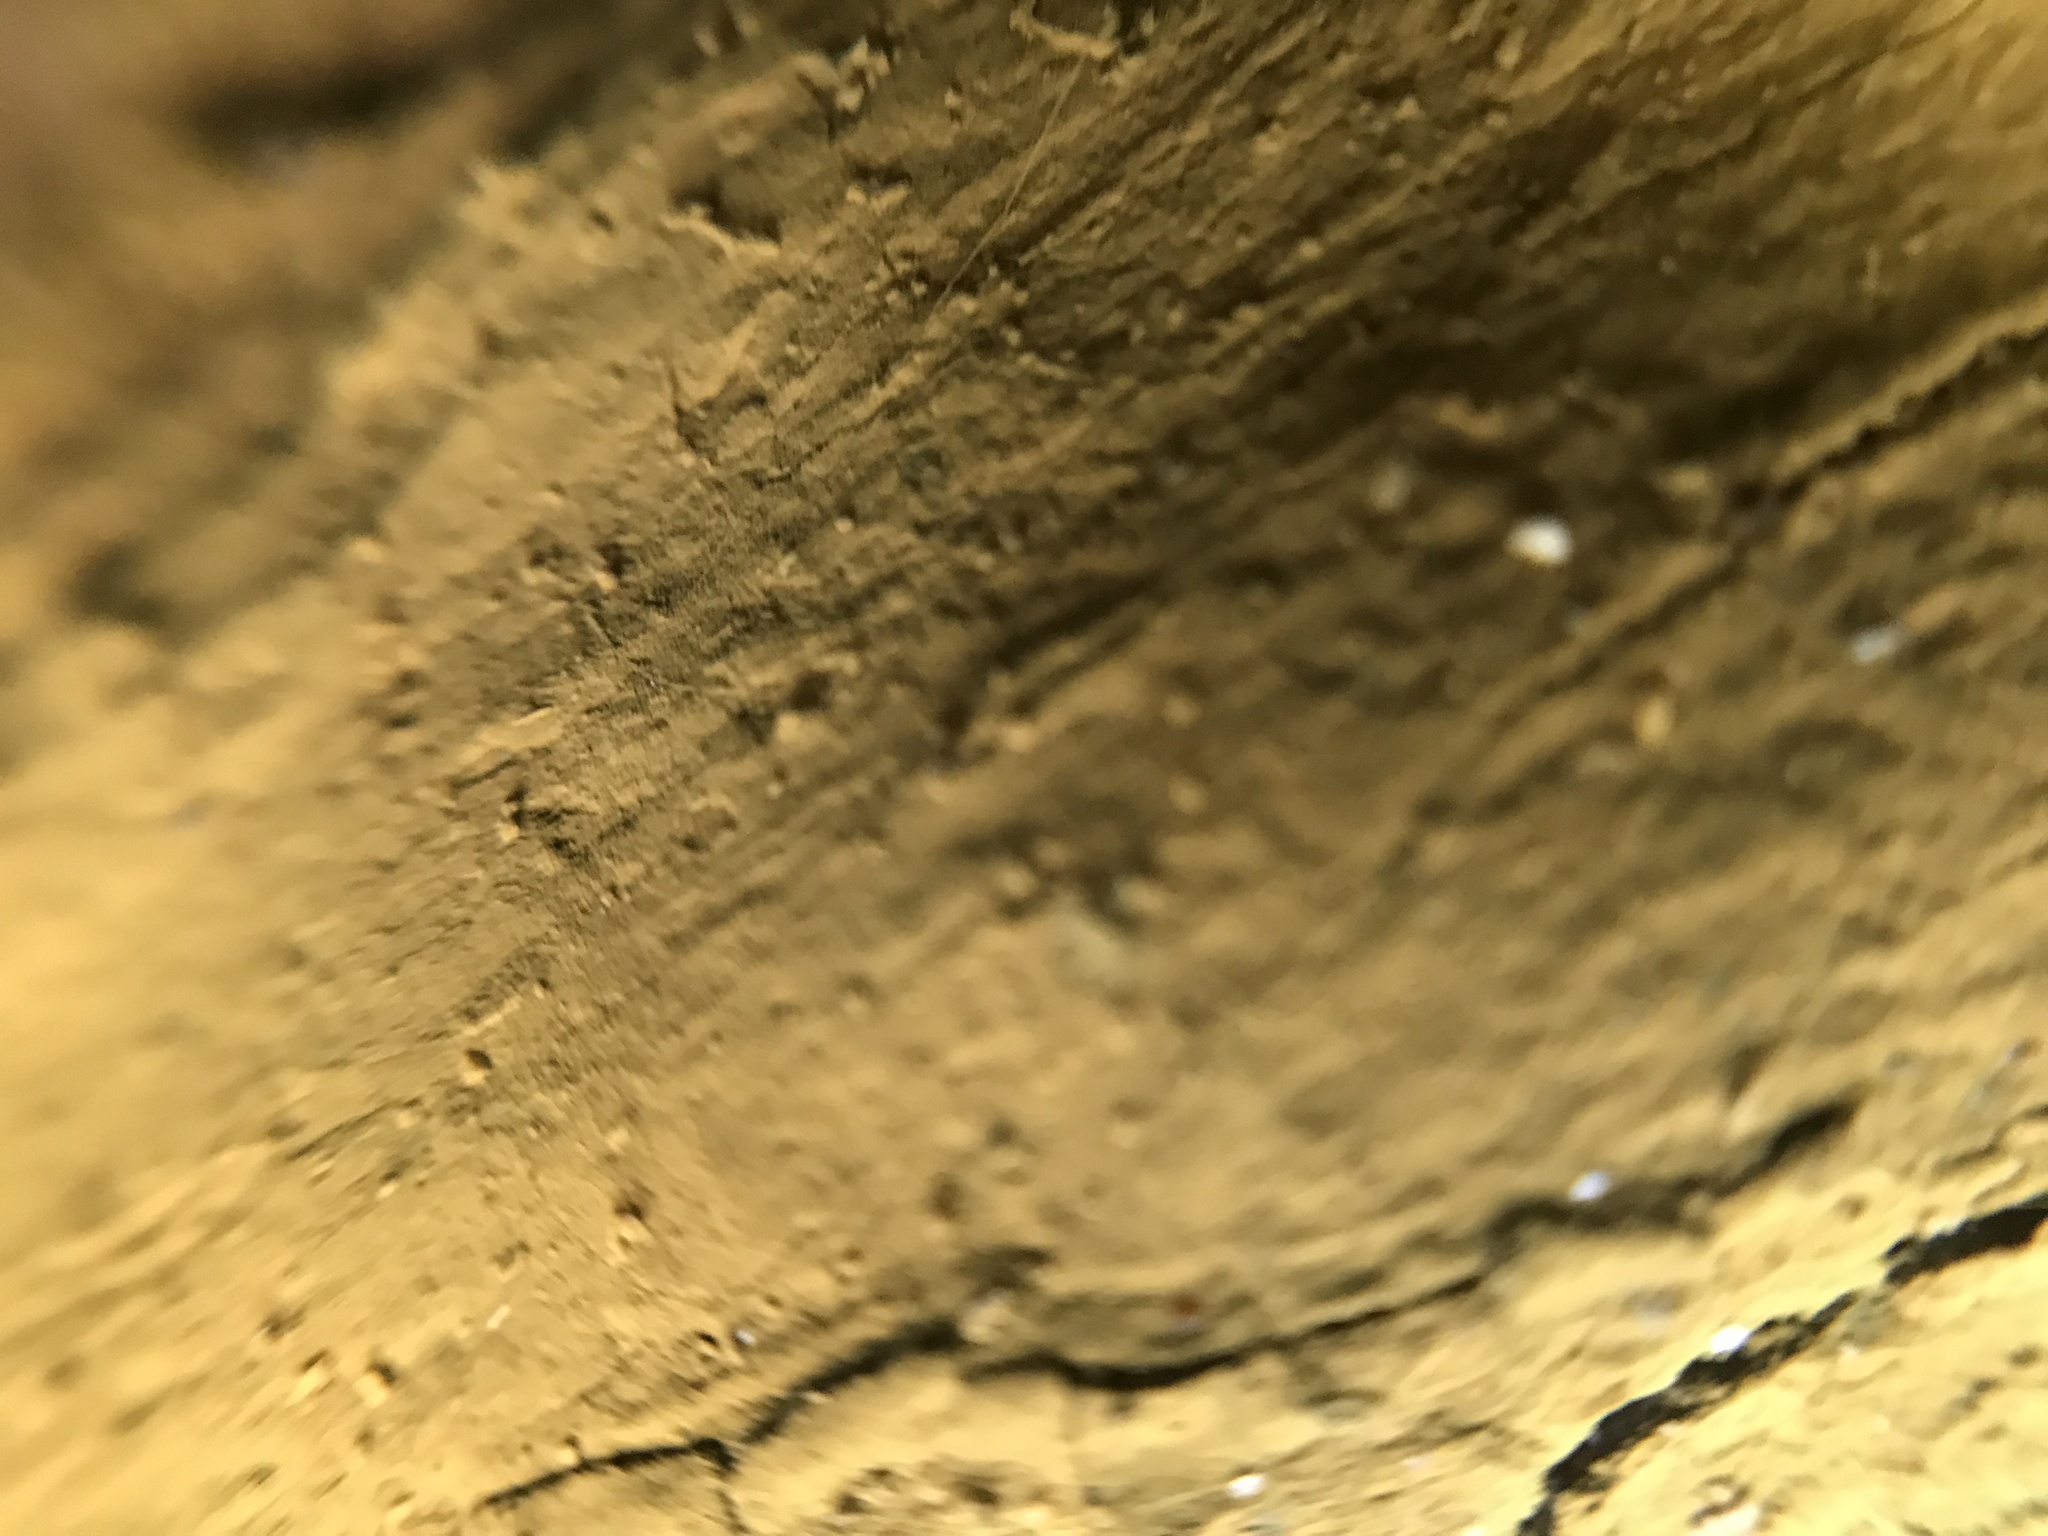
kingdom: Fungi
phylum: Ascomycota
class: Arthoniomycetes
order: Arthoniales
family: Chrysotrichaceae
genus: Chrysothrix
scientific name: Chrysothrix xanthina
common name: Common gold-dust
